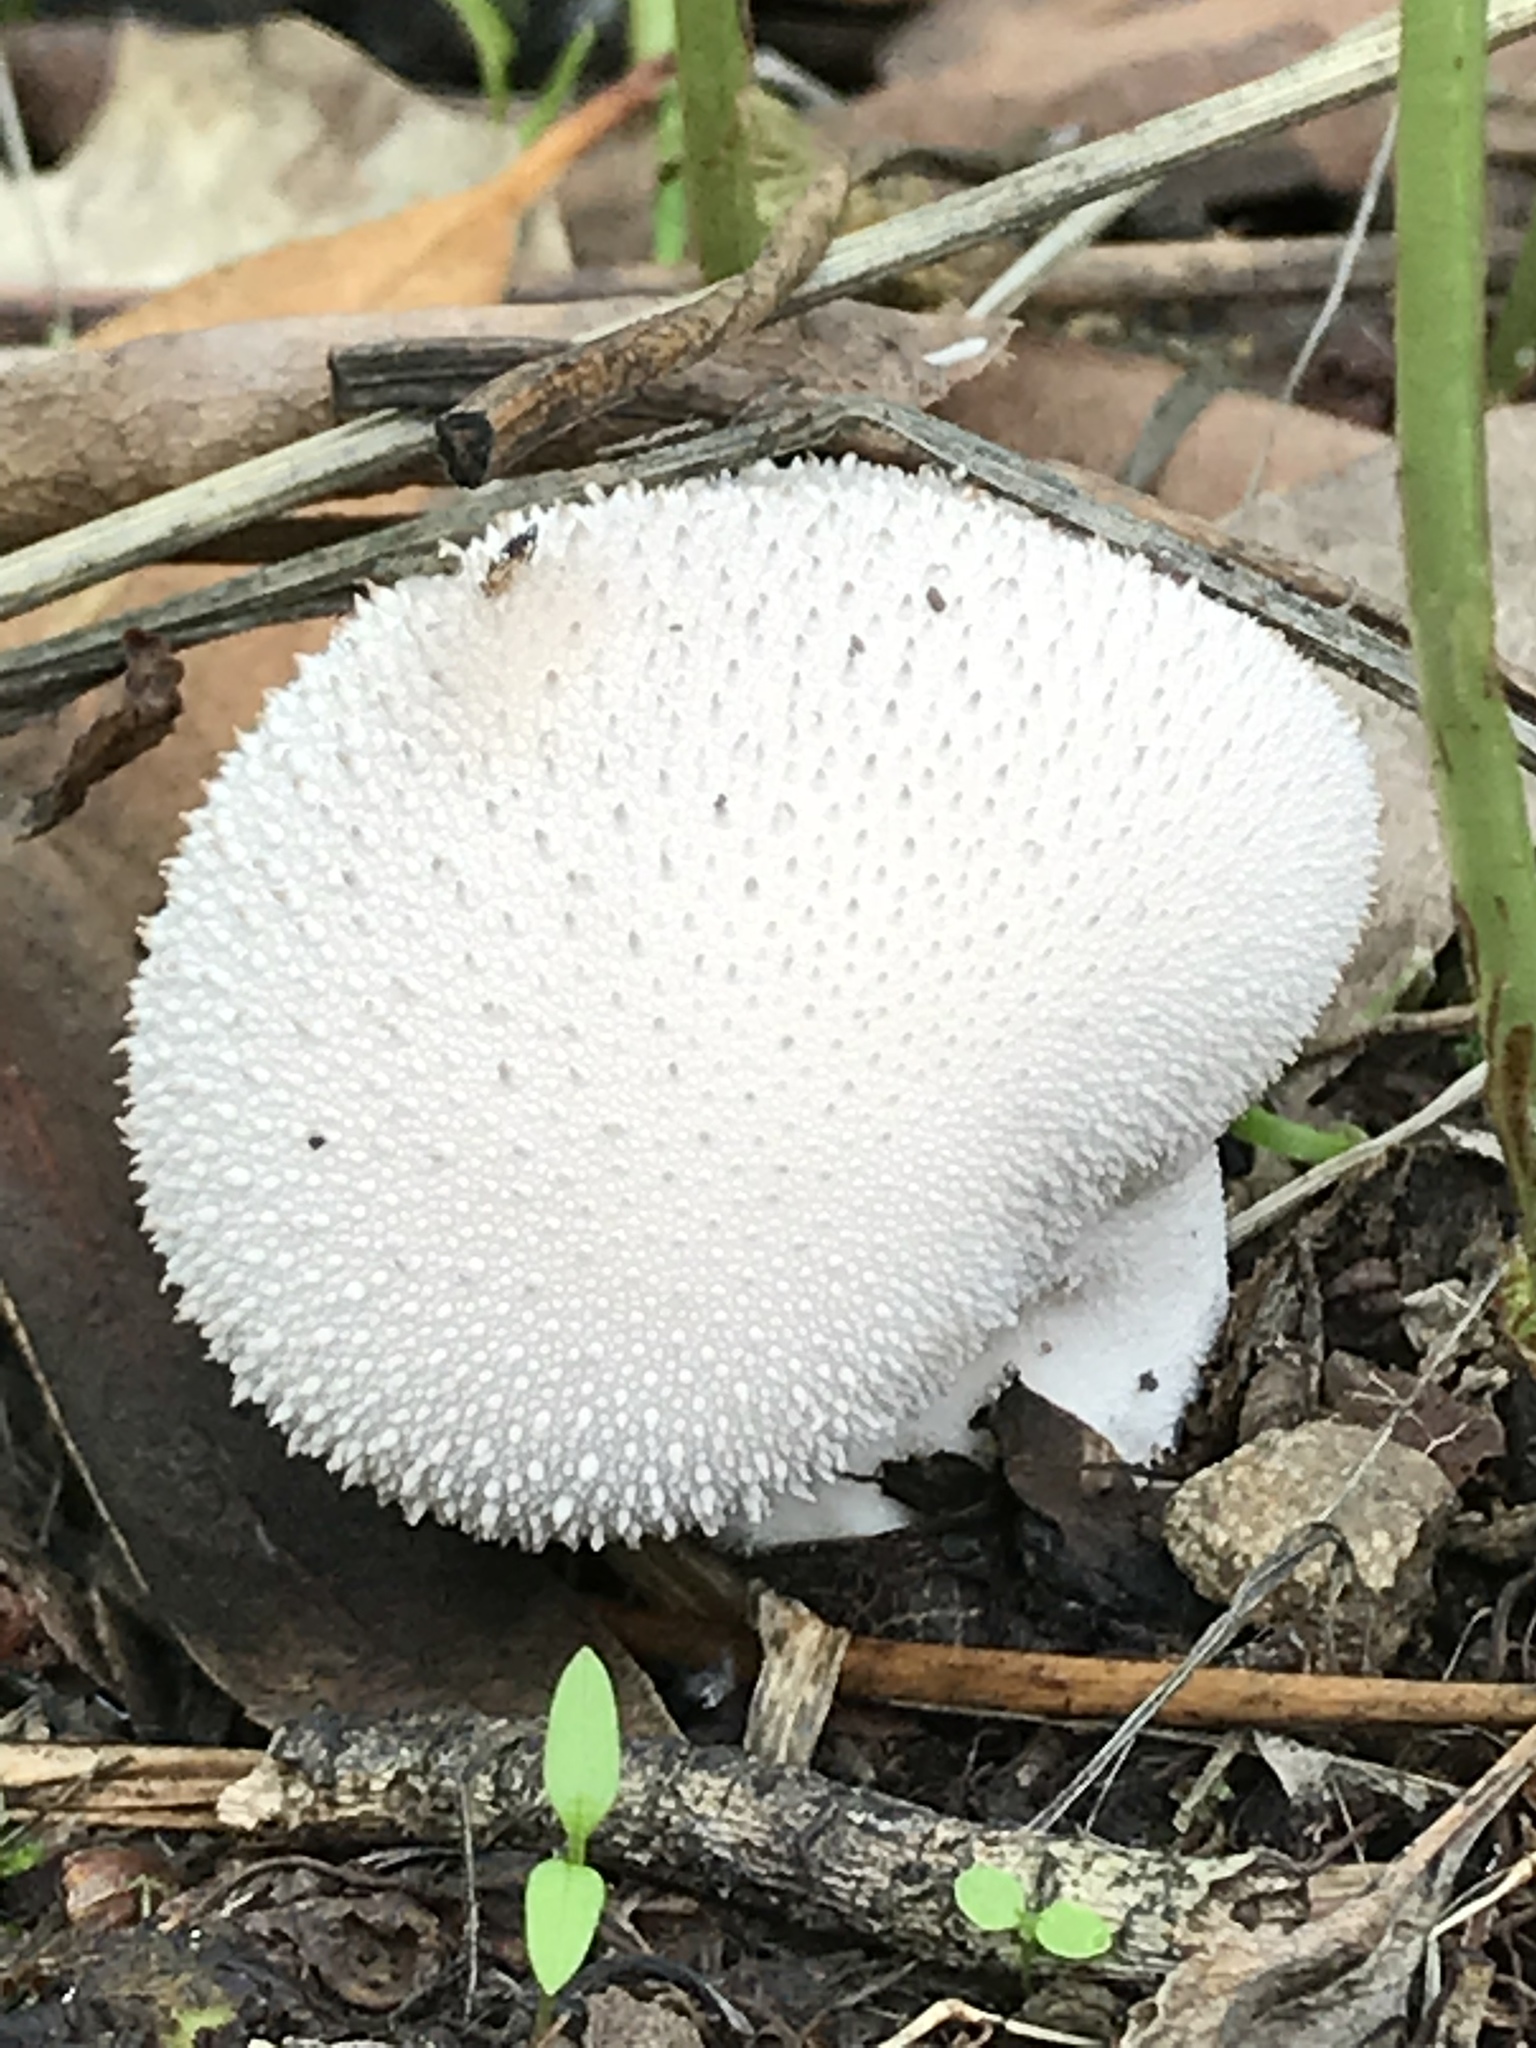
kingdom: Fungi
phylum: Basidiomycota
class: Agaricomycetes
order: Agaricales
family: Lycoperdaceae
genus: Lycoperdon
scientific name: Lycoperdon perlatum
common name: Common puffball
